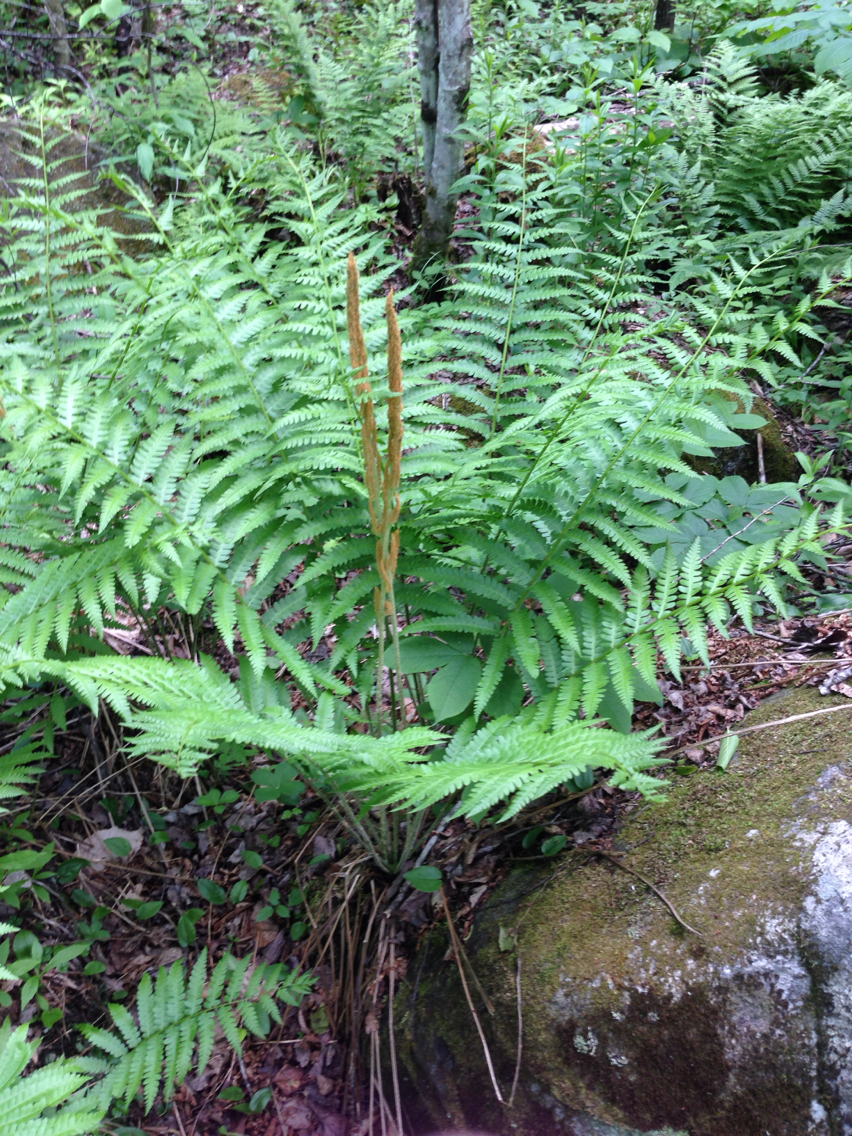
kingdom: Plantae
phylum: Tracheophyta
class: Polypodiopsida
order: Osmundales
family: Osmundaceae
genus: Osmundastrum
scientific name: Osmundastrum cinnamomeum
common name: Cinnamon fern
